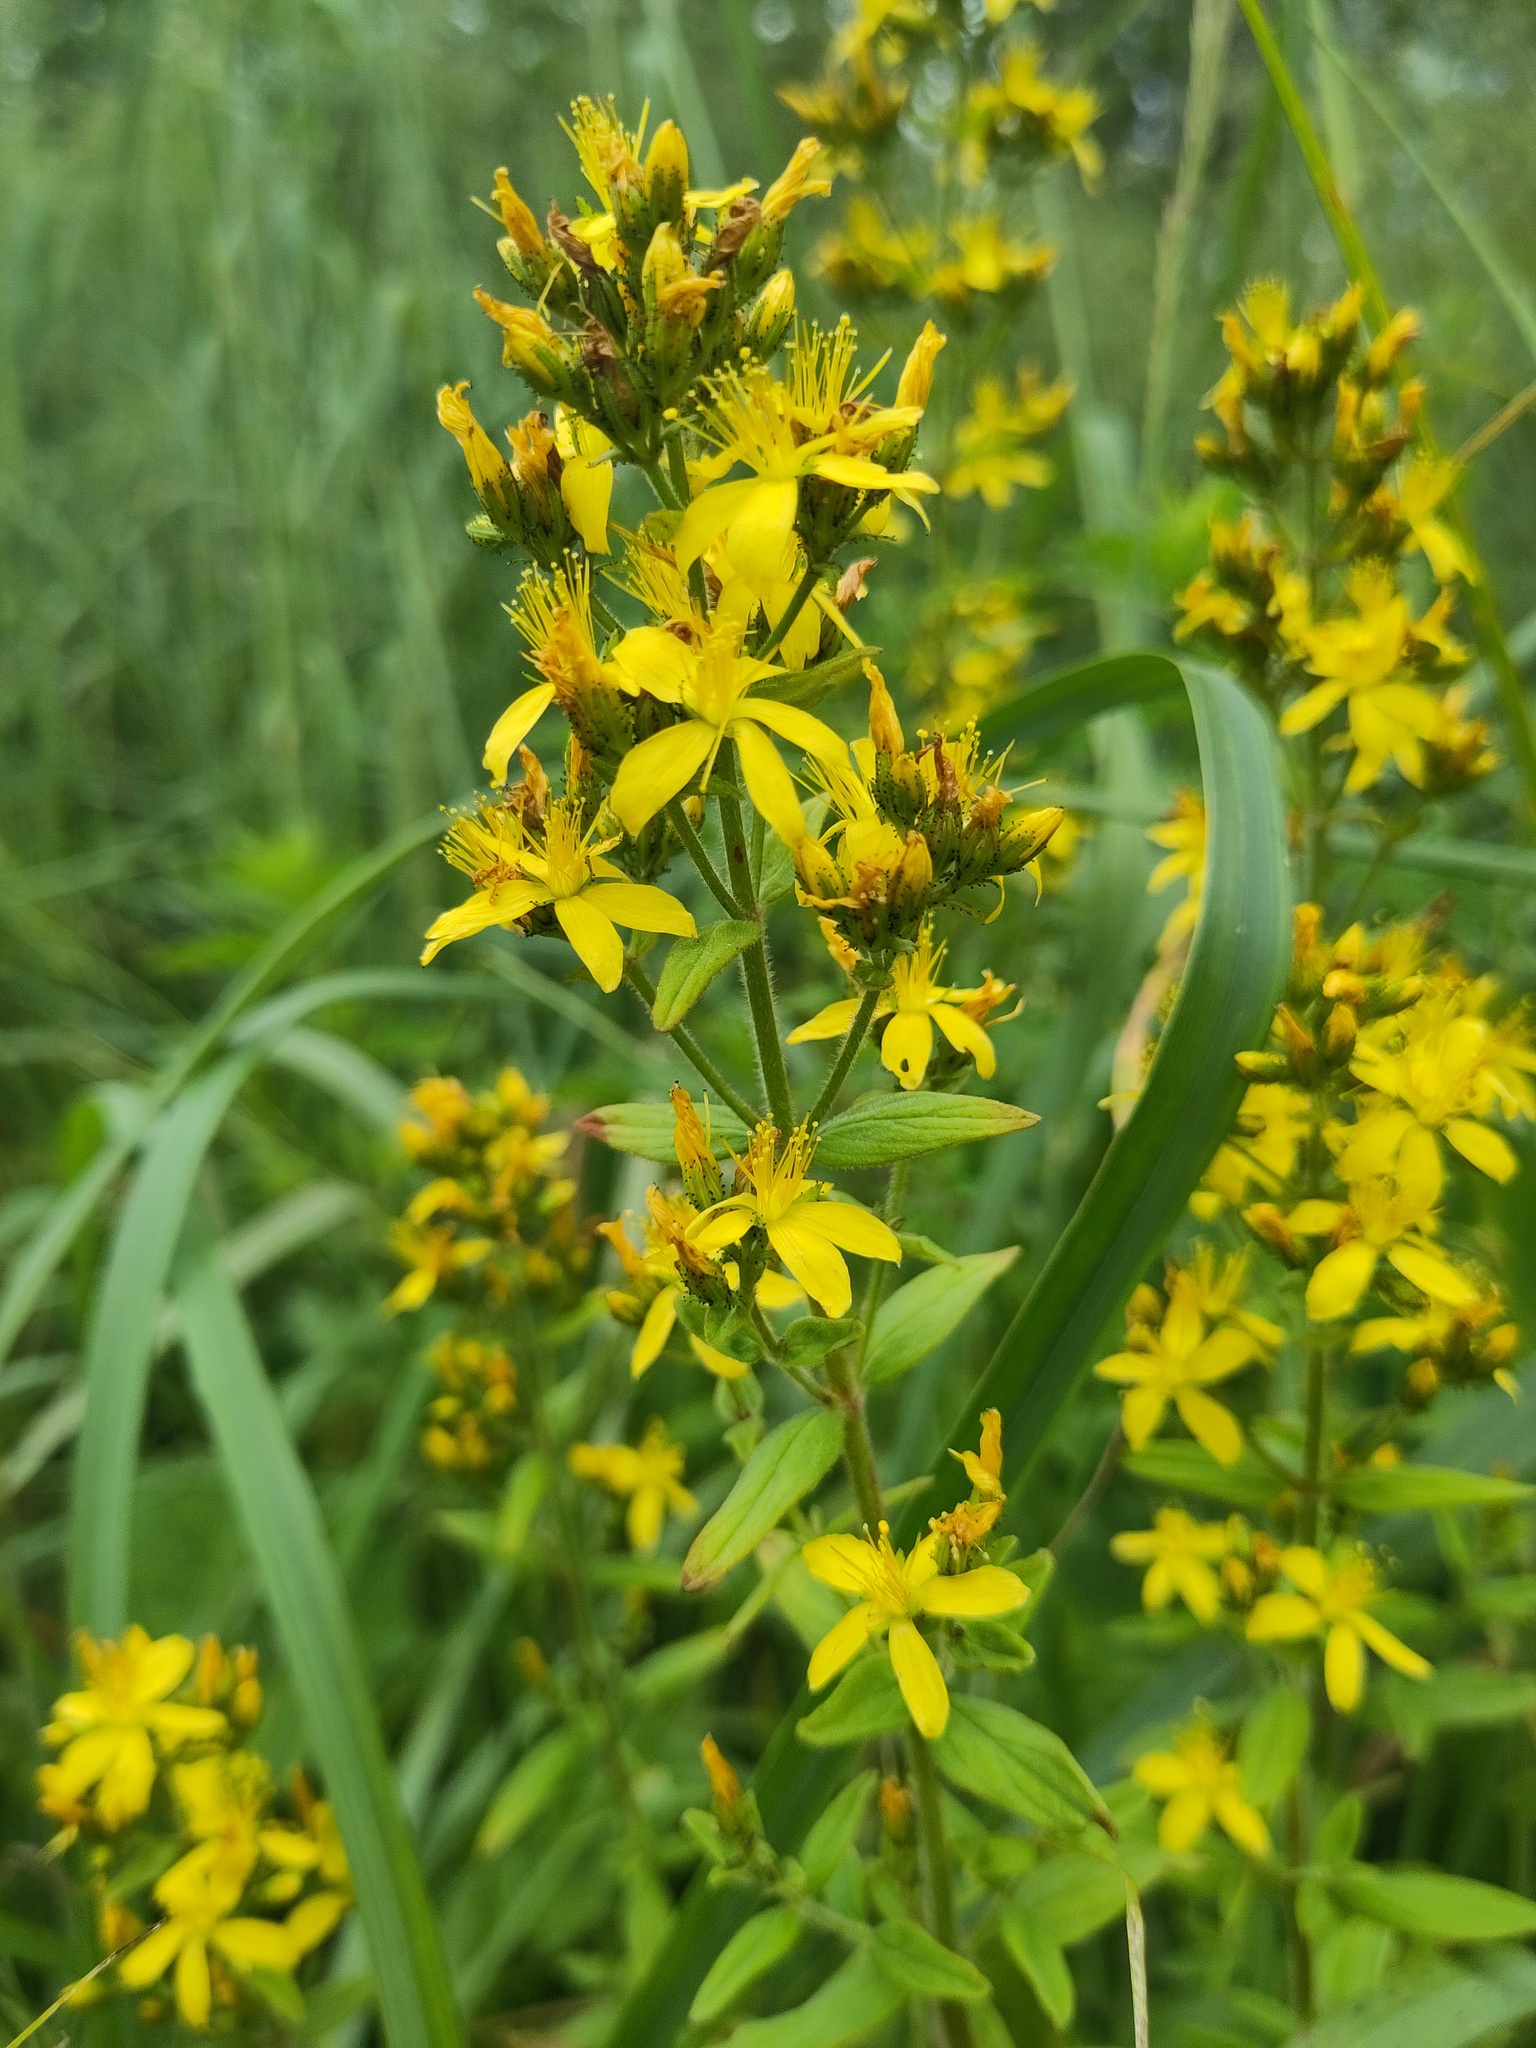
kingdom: Plantae
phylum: Tracheophyta
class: Magnoliopsida
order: Malpighiales
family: Hypericaceae
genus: Hypericum
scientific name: Hypericum hirsutum
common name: Hairy st. john's-wort
